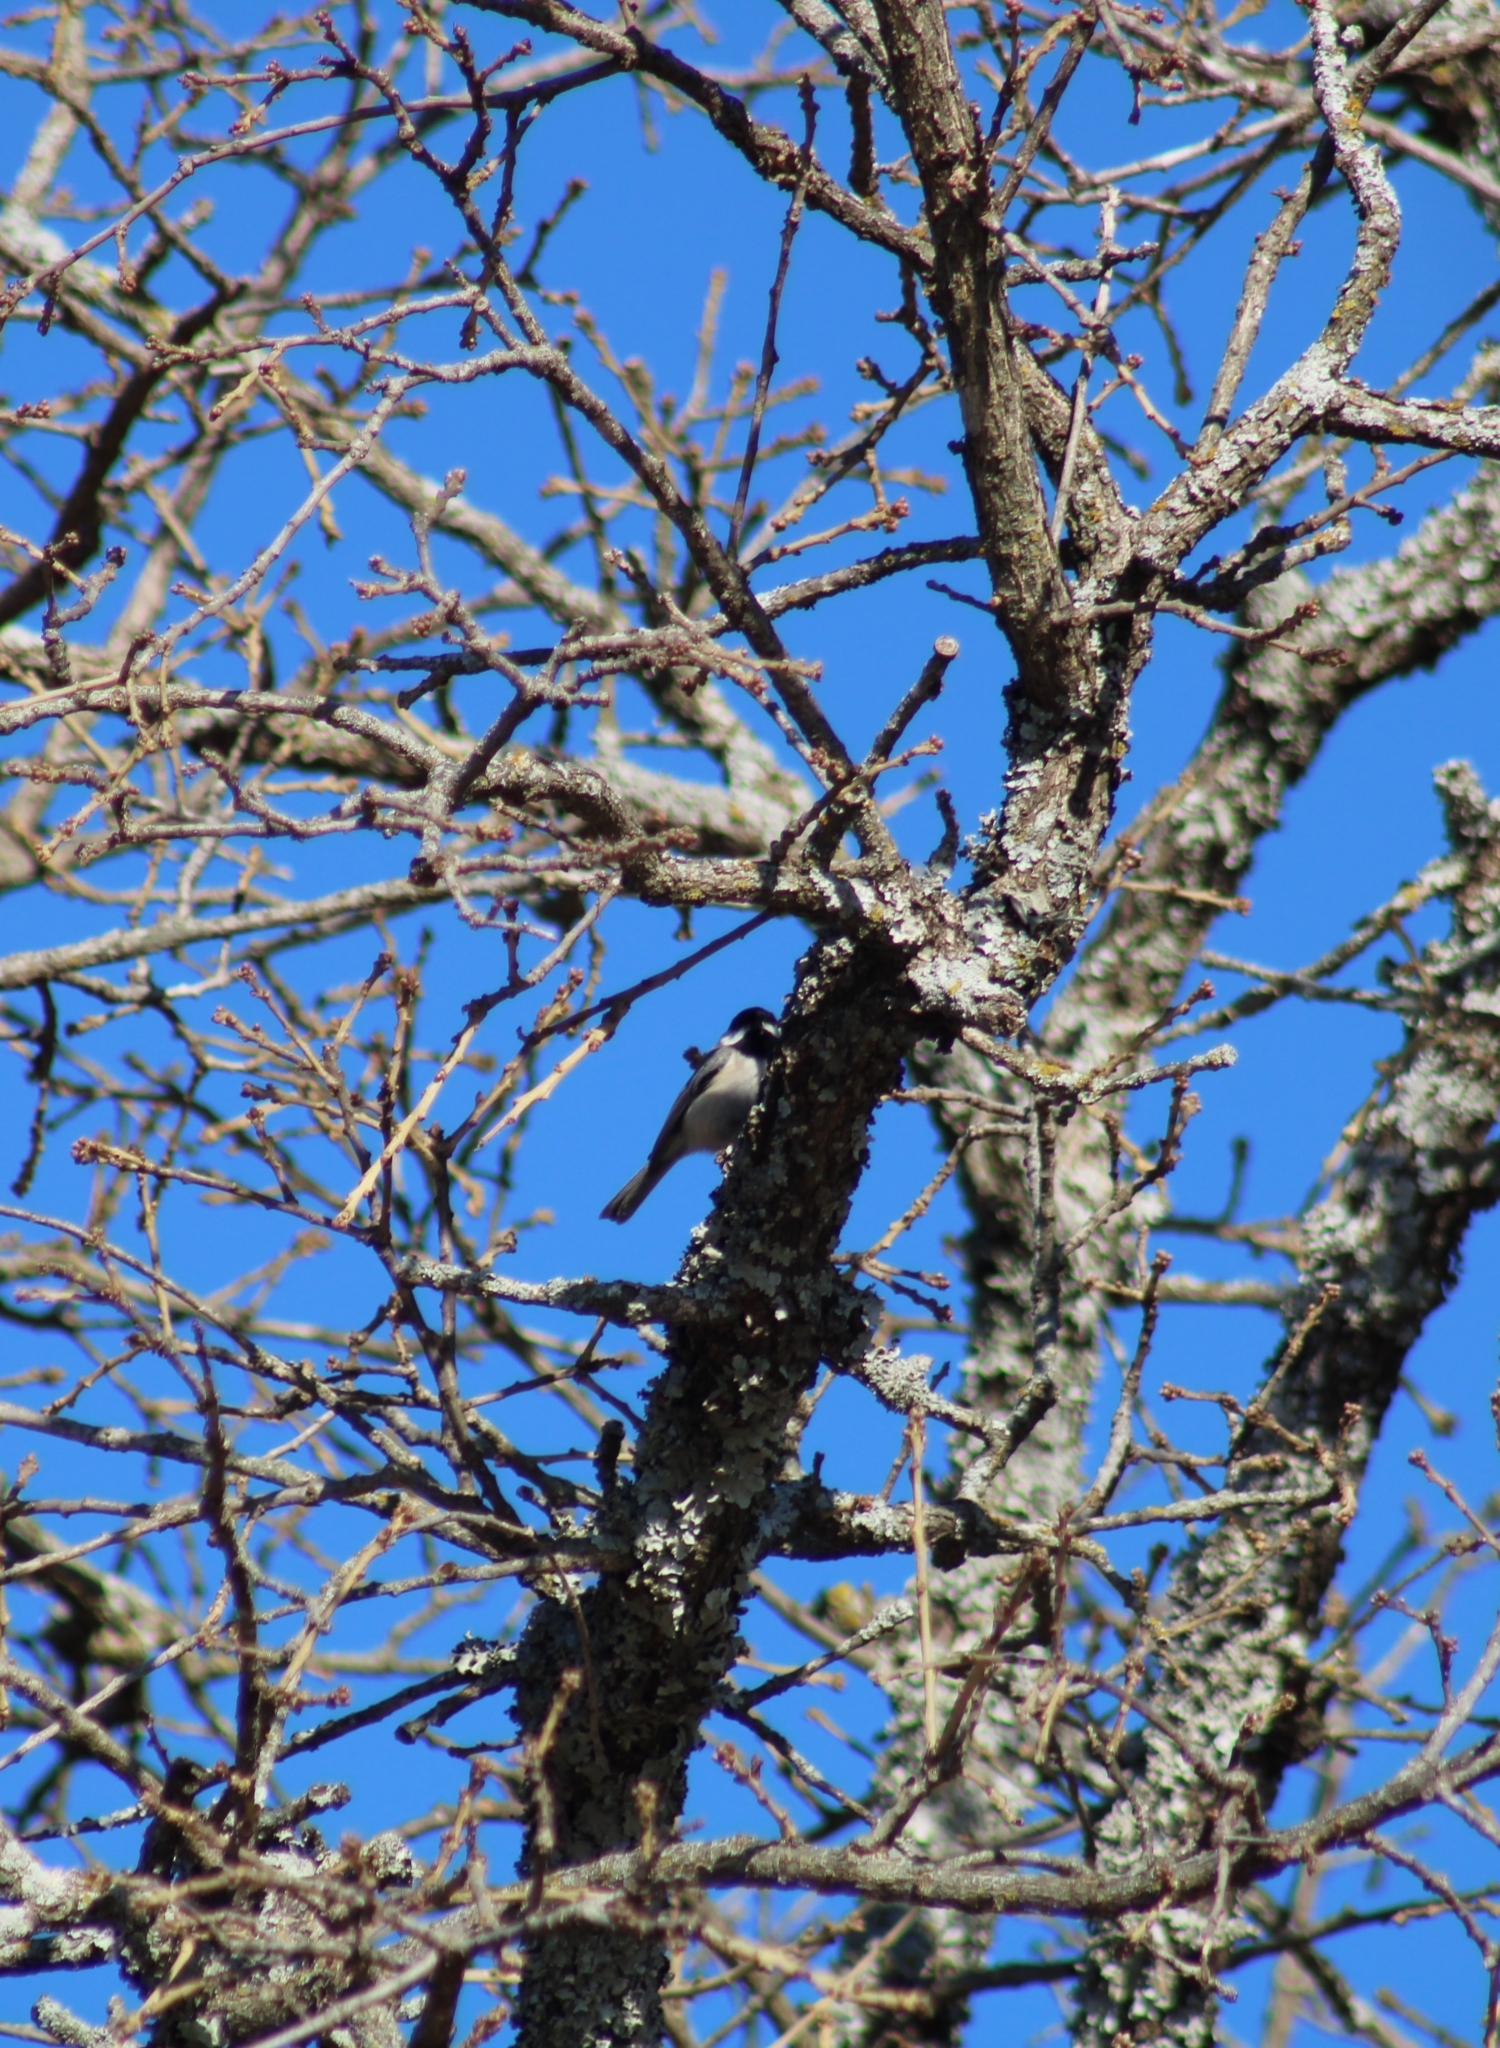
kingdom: Animalia
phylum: Chordata
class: Aves
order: Passeriformes
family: Paridae
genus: Poecile
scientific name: Poecile carolinensis
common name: Carolina chickadee
